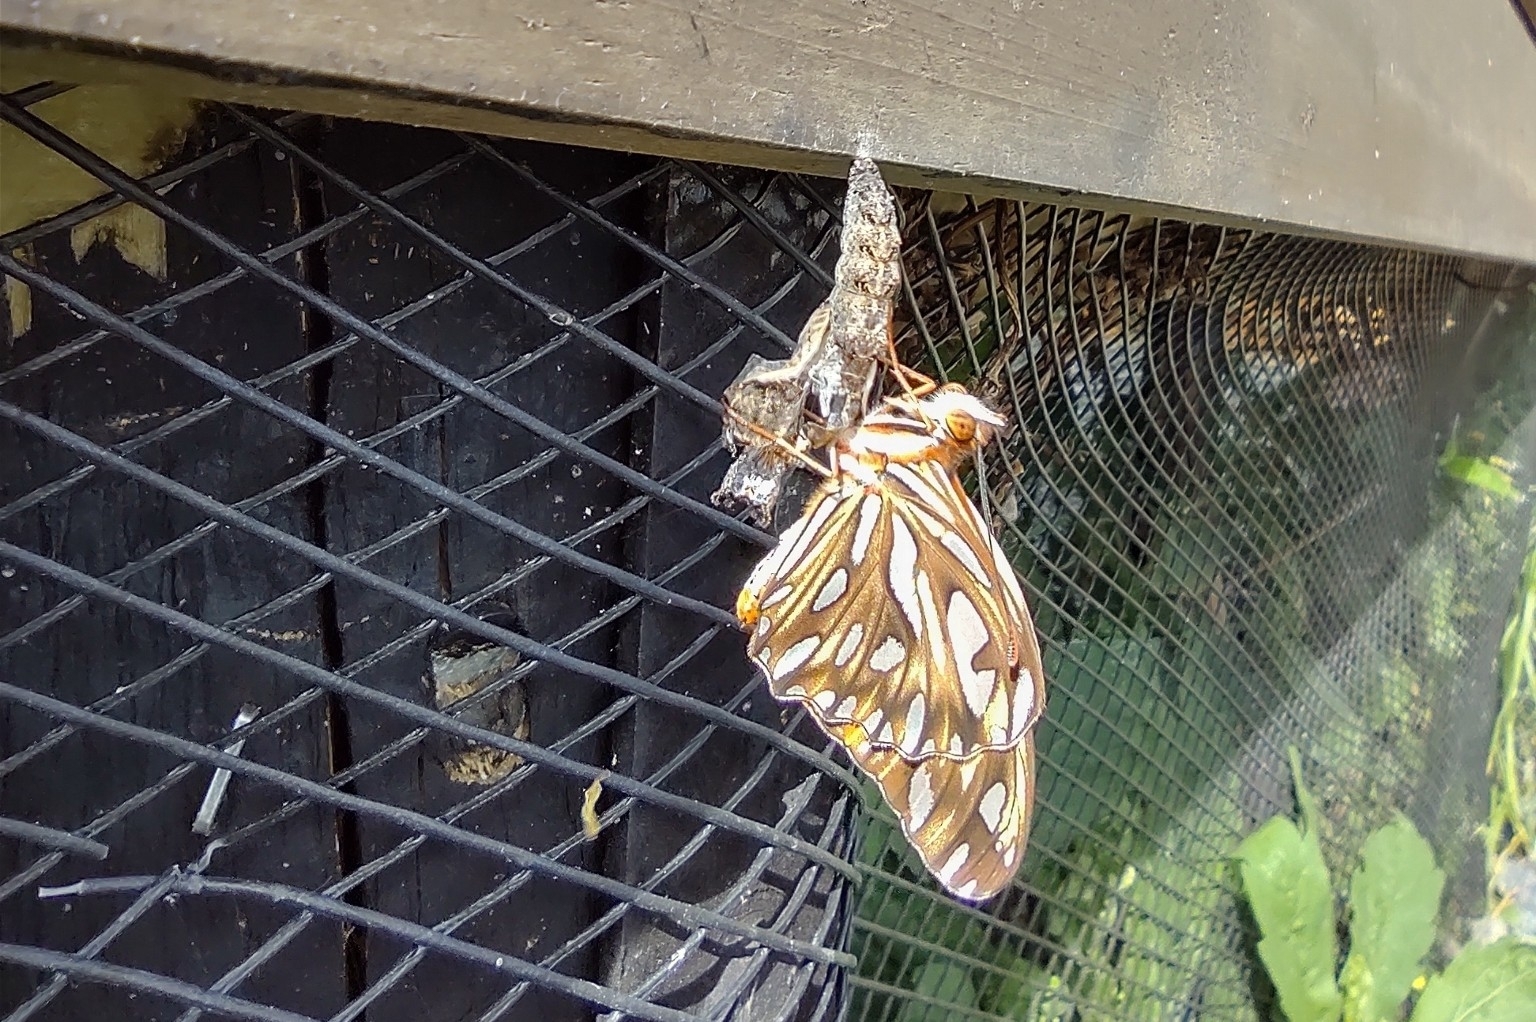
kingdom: Animalia
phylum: Arthropoda
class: Insecta
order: Lepidoptera
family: Nymphalidae
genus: Dione
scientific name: Dione vanillae
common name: Gulf fritillary
